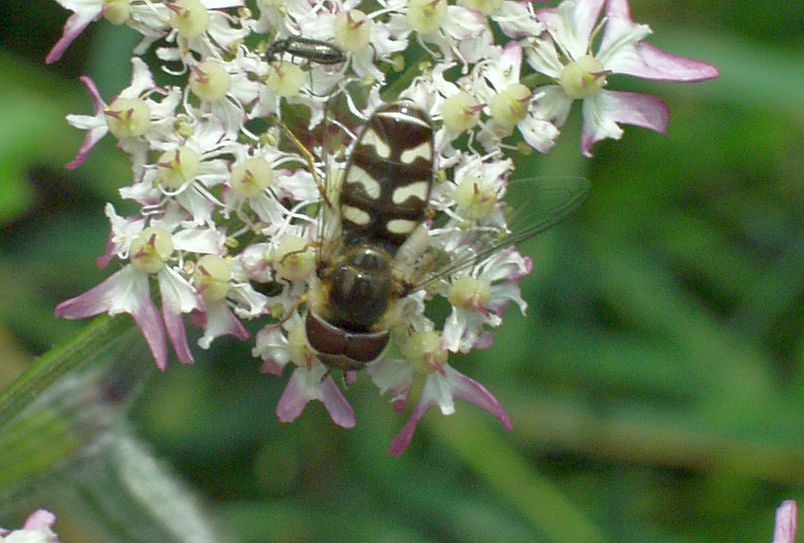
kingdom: Animalia
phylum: Arthropoda
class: Insecta
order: Diptera
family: Syrphidae
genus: Scaeva
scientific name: Scaeva pyrastri
